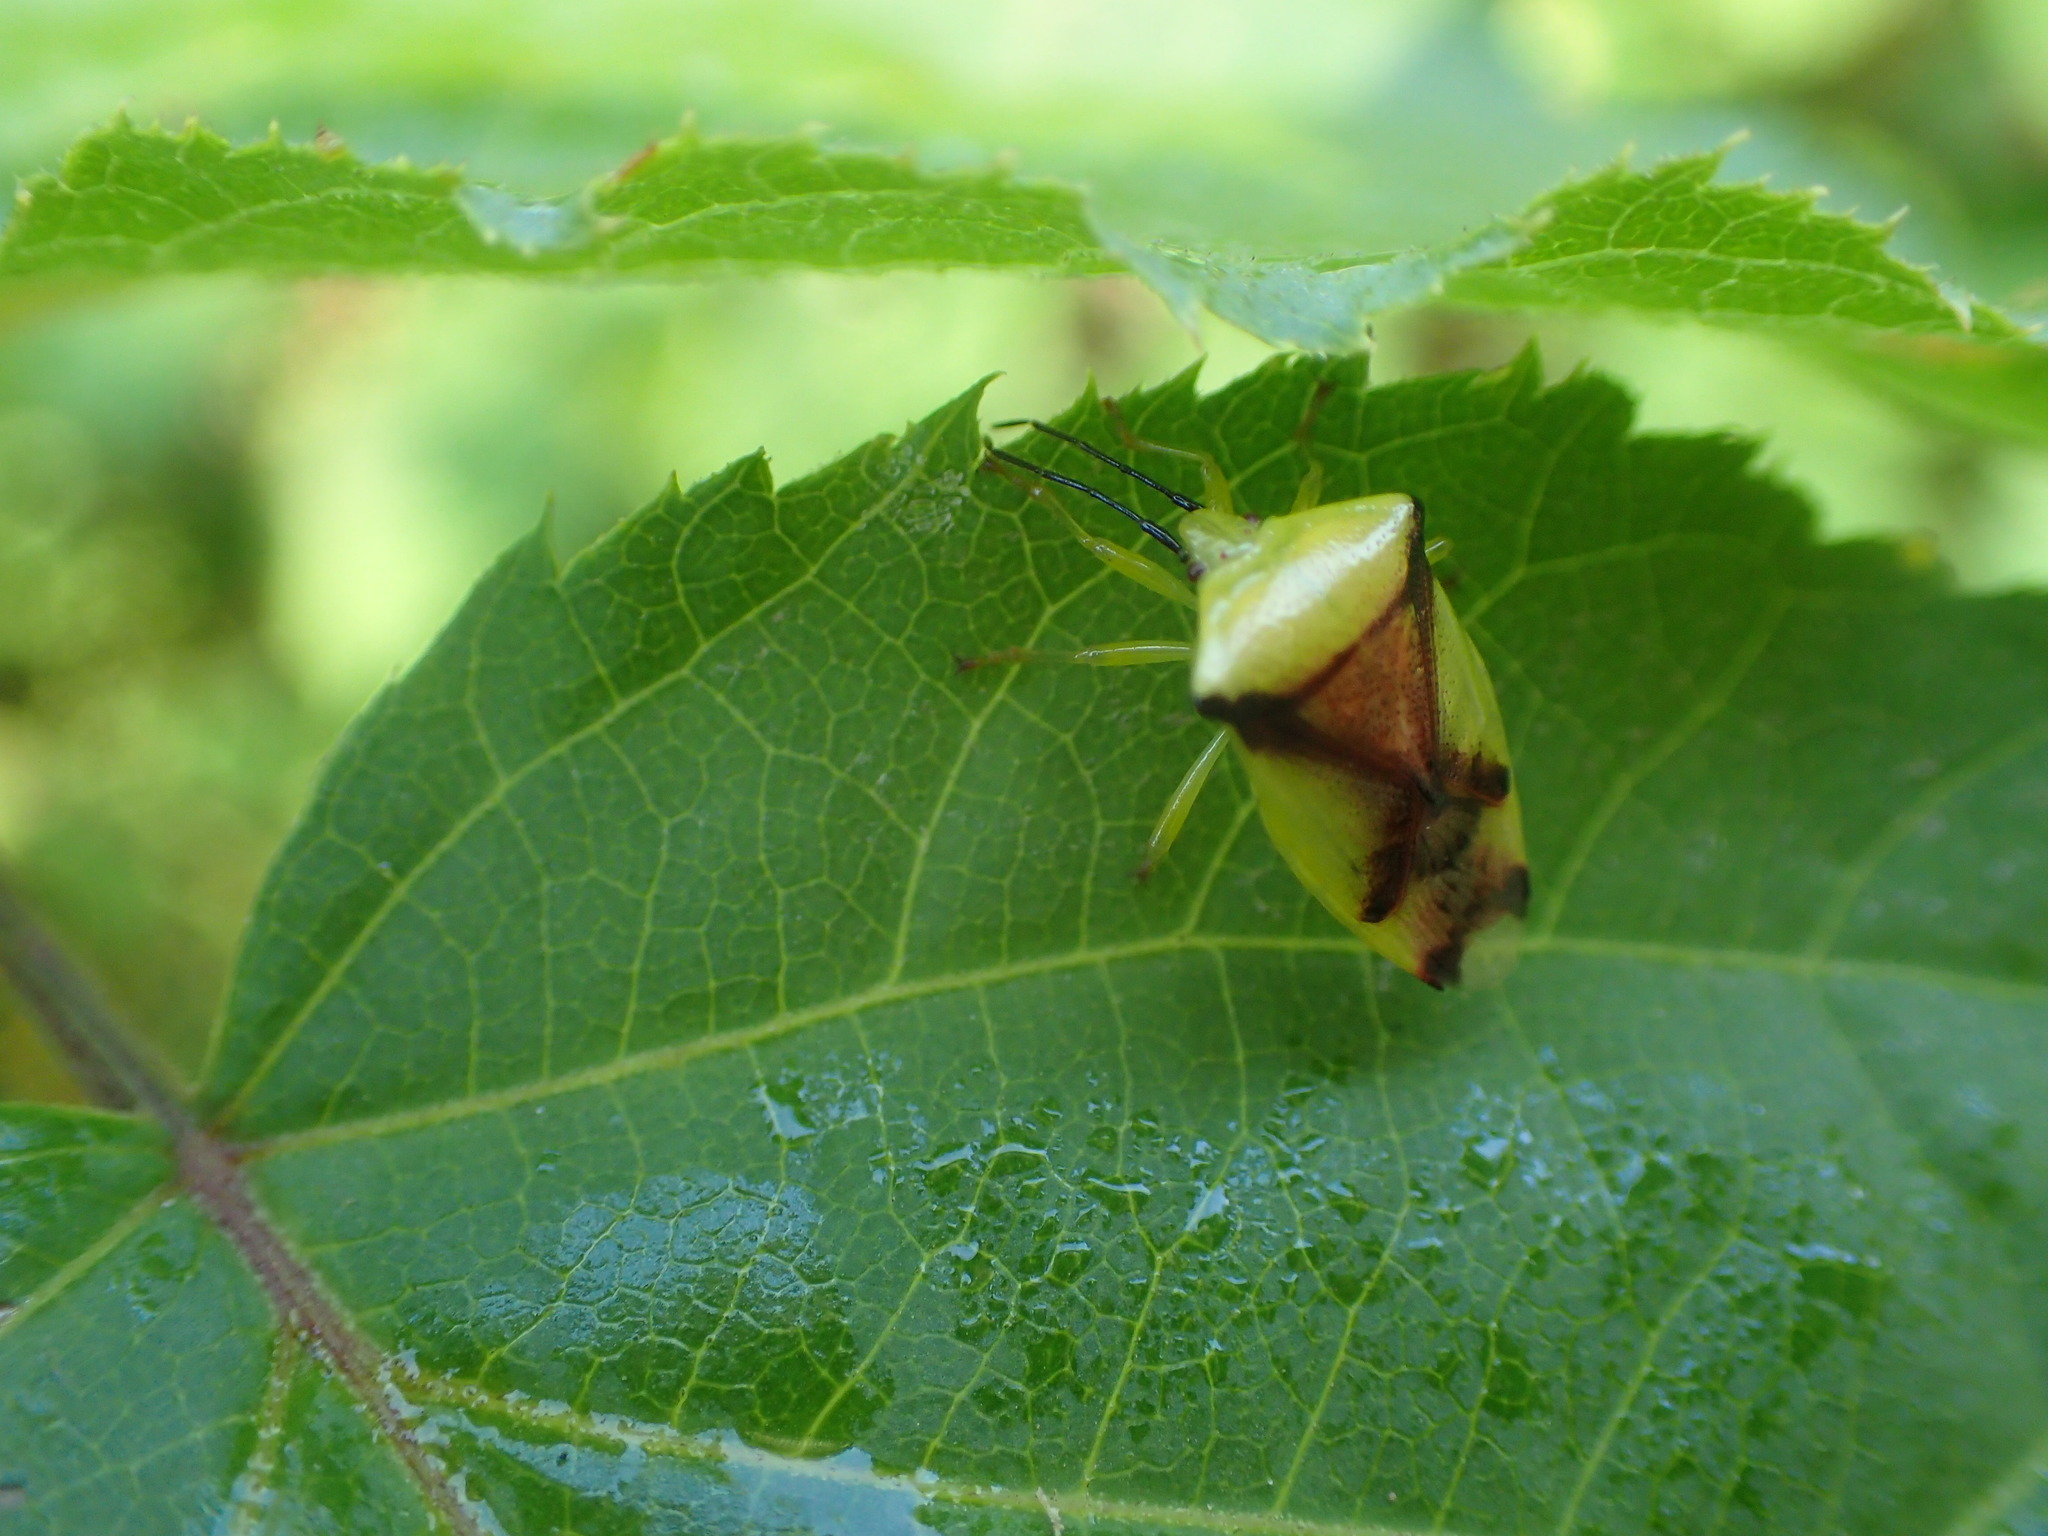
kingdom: Animalia
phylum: Arthropoda
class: Insecta
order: Hemiptera
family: Acanthosomatidae
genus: Elasmostethus
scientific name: Elasmostethus atricornis
